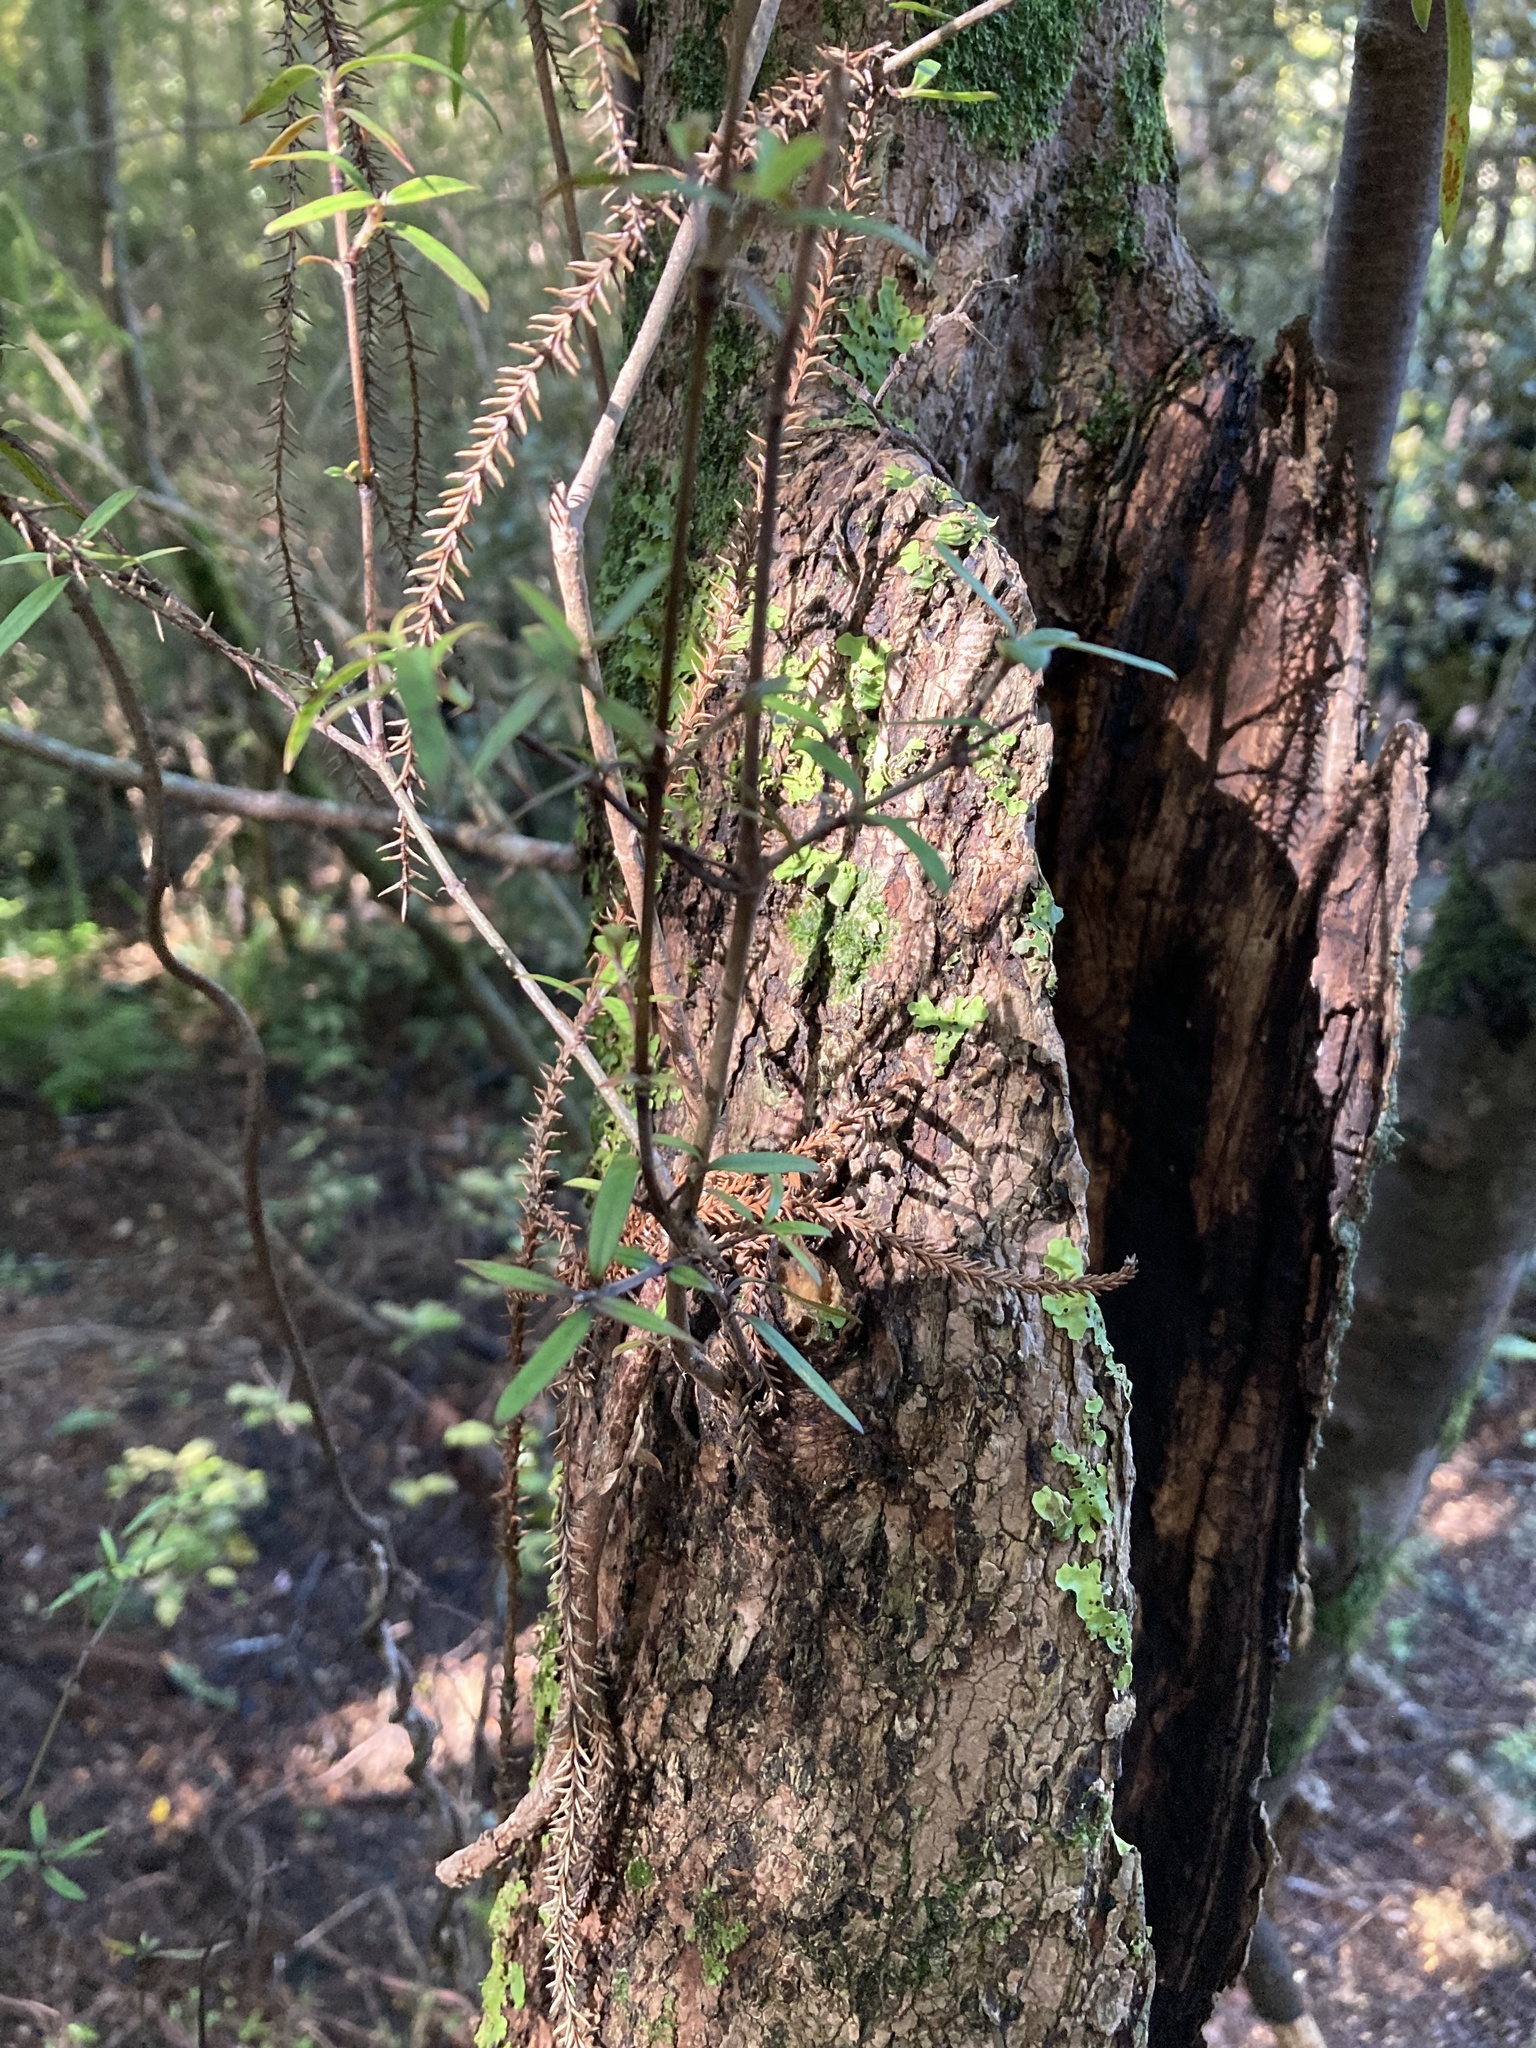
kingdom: Plantae
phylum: Tracheophyta
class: Magnoliopsida
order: Gentianales
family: Rubiaceae
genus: Coprosma
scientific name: Coprosma linariifolia
